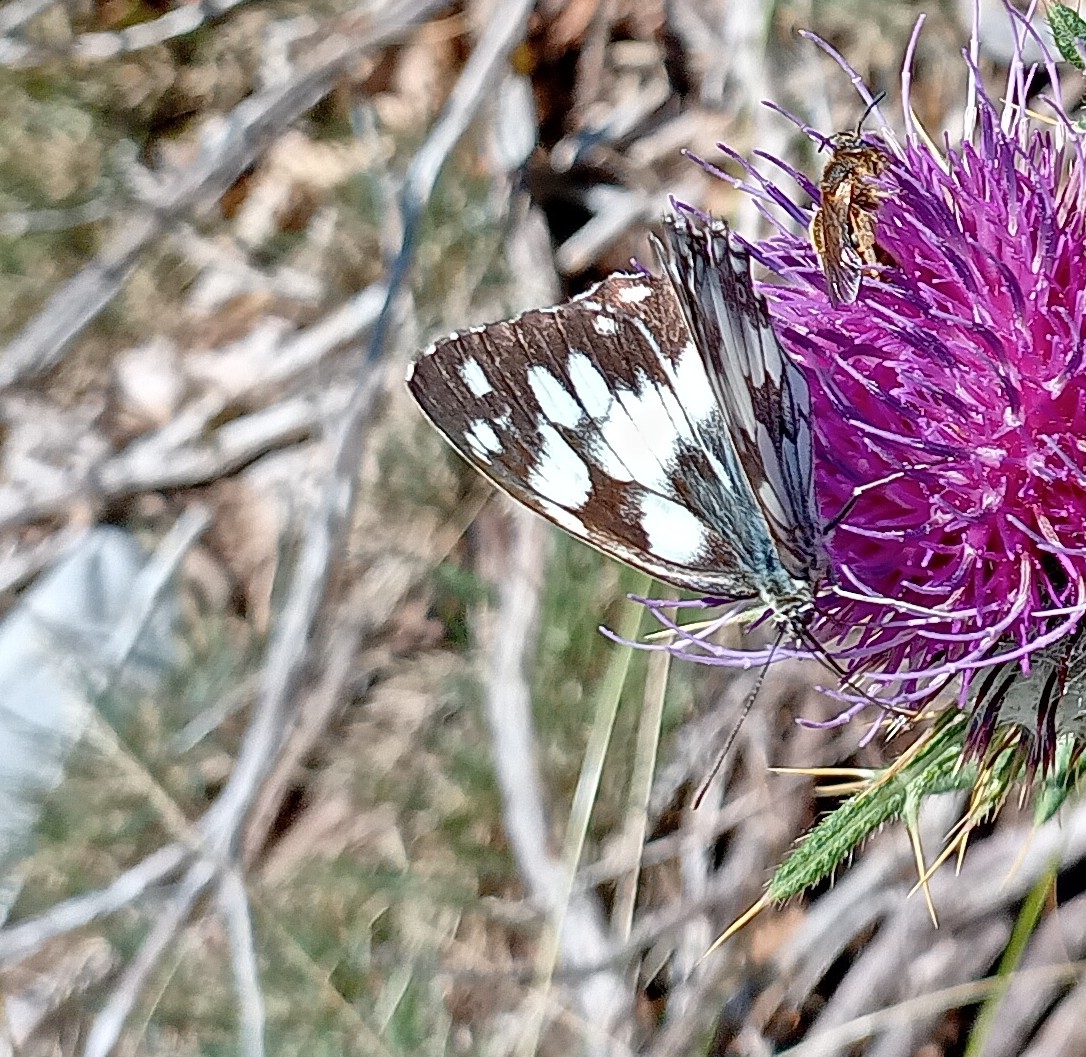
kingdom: Animalia
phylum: Arthropoda
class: Insecta
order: Lepidoptera
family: Nymphalidae
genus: Melanargia
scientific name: Melanargia galathea
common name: Marbled white
